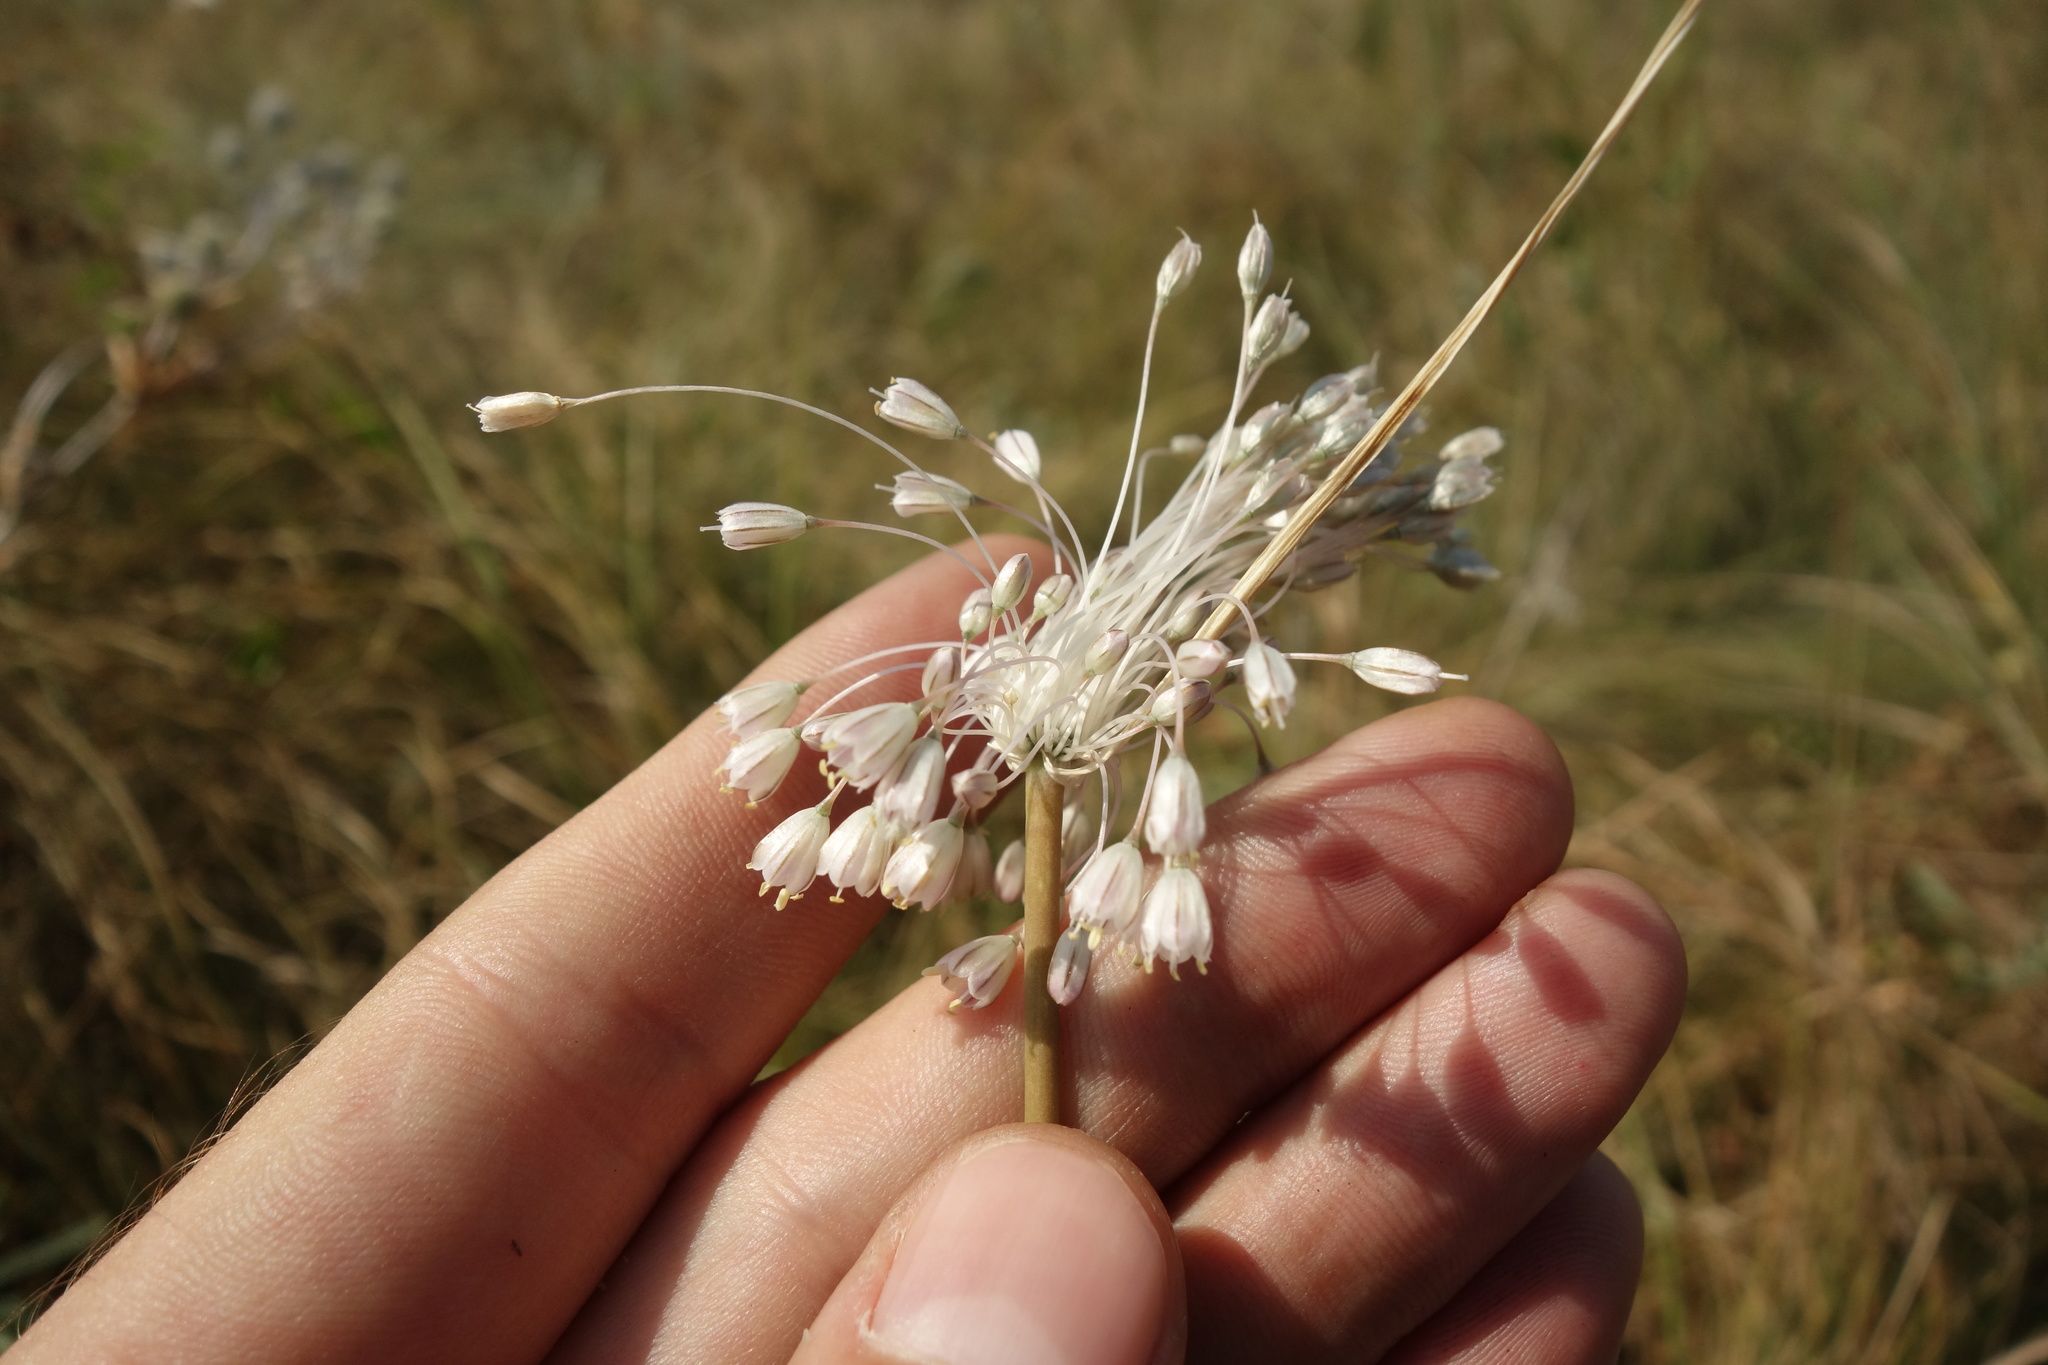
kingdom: Plantae
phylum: Tracheophyta
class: Liliopsida
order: Asparagales
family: Amaryllidaceae
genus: Allium
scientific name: Allium podolicum
